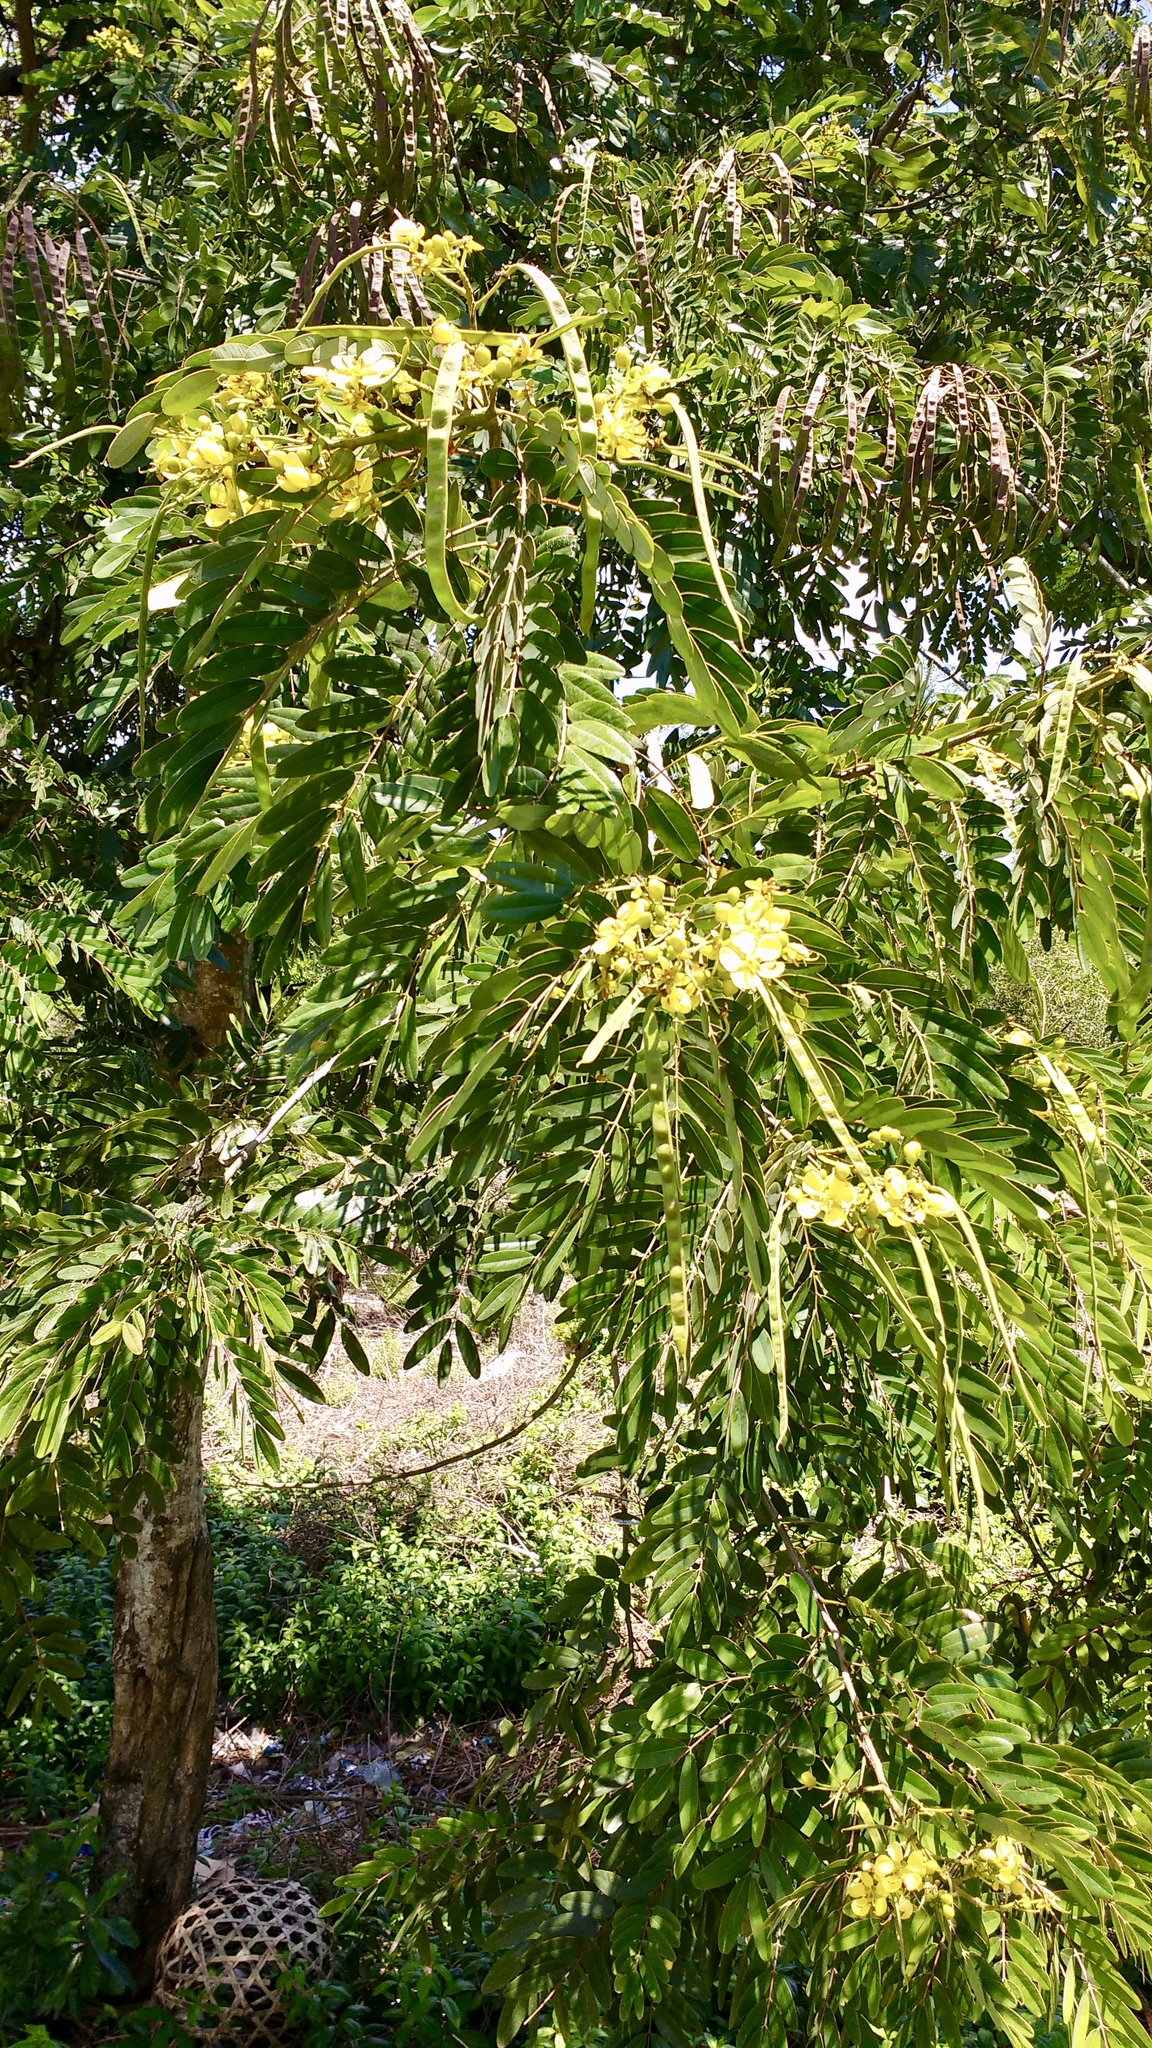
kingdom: Plantae
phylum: Tracheophyta
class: Magnoliopsida
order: Fabales
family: Fabaceae
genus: Senna
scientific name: Senna siamea
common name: Siamese cassia
